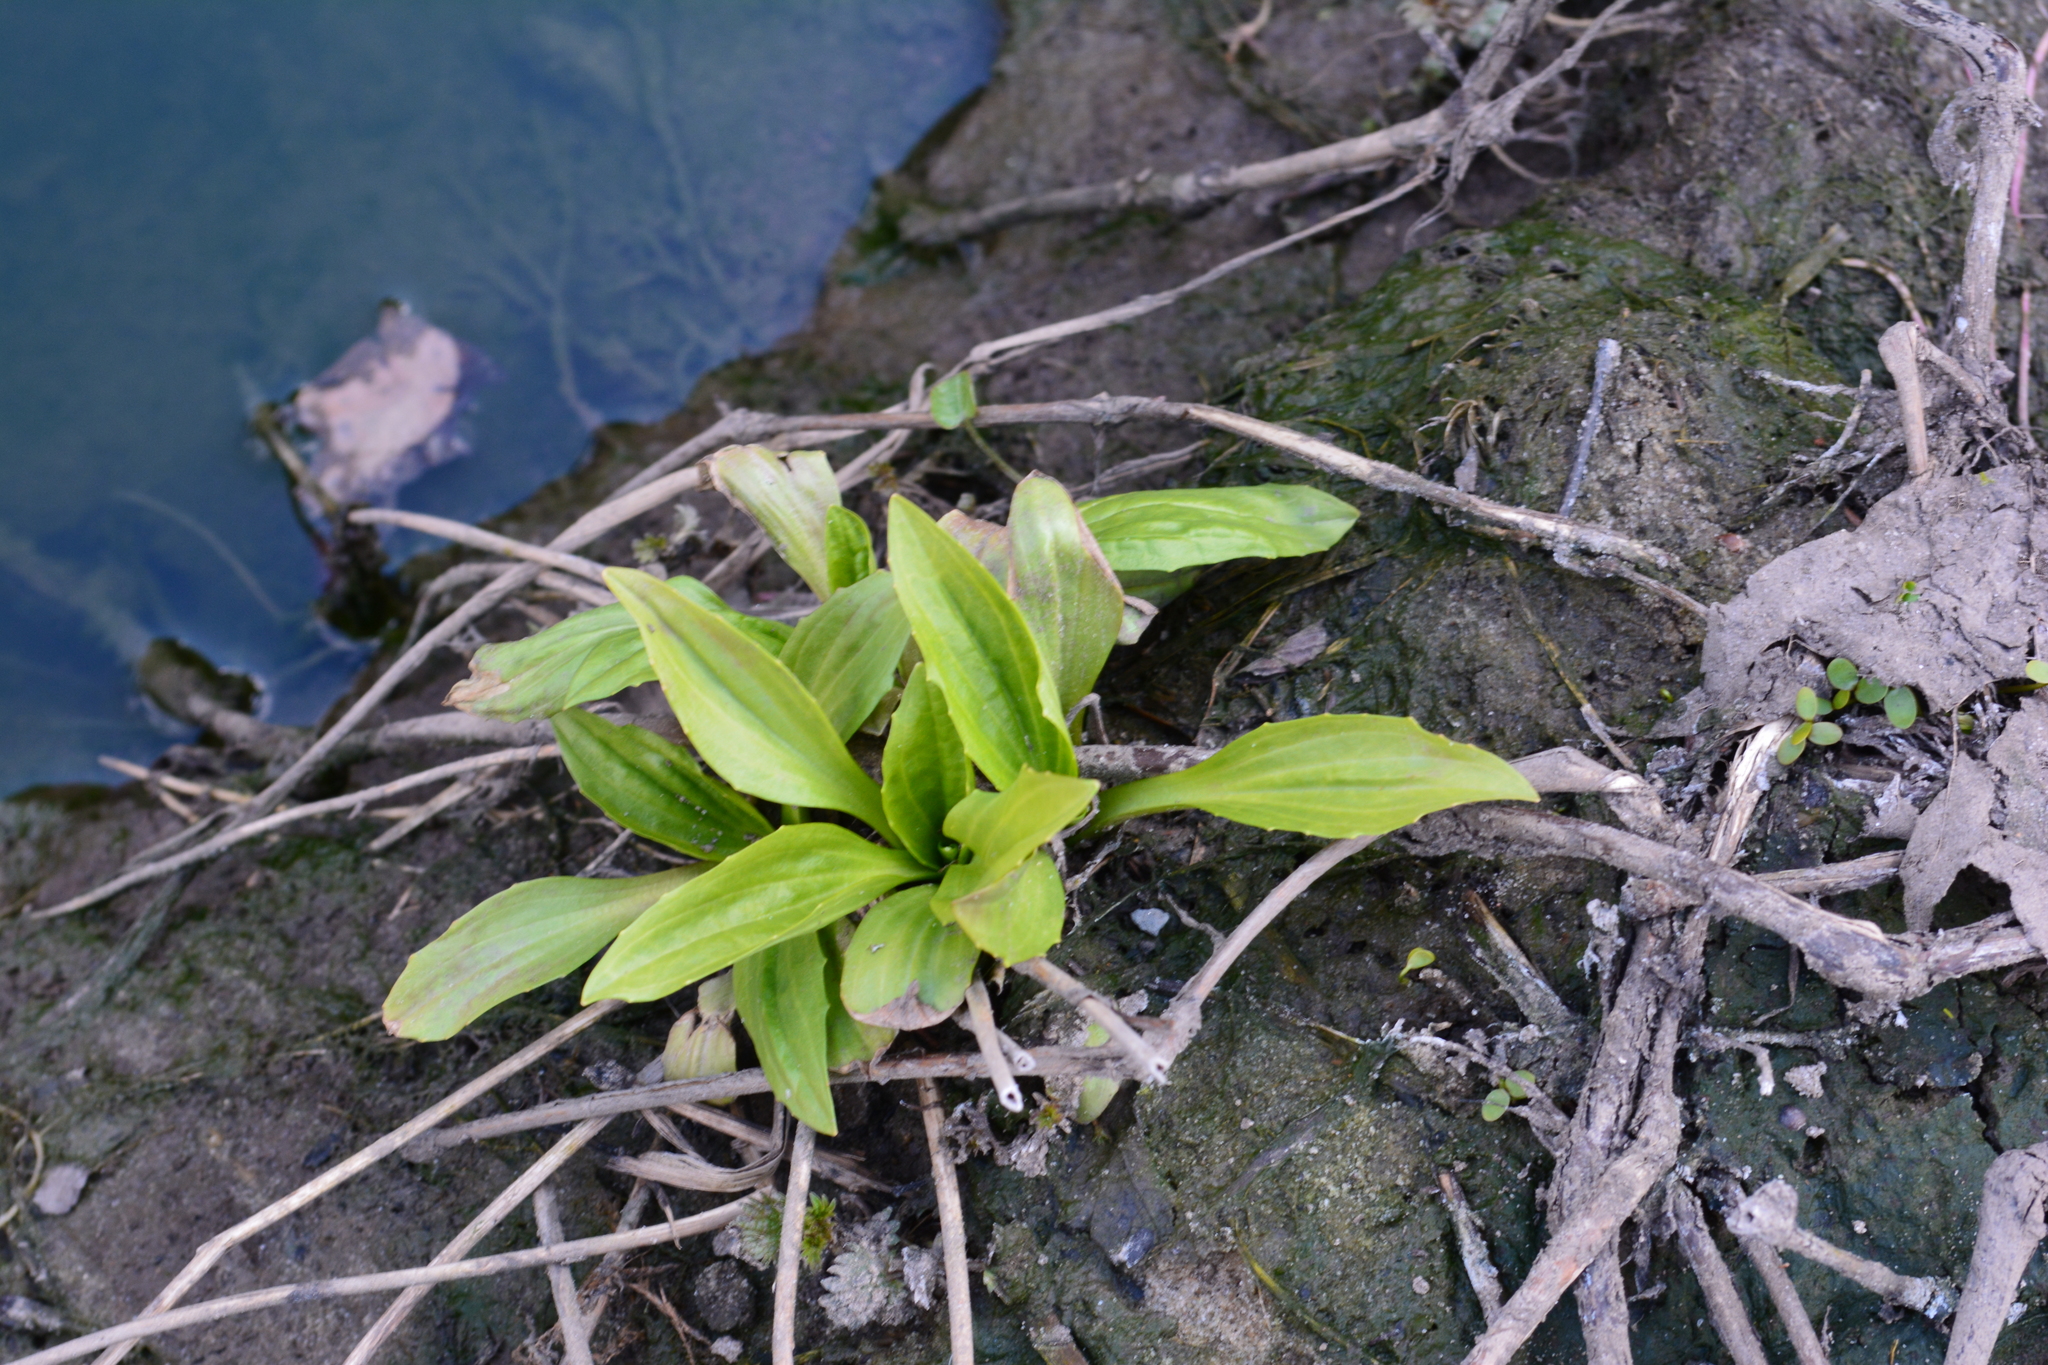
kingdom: Plantae
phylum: Tracheophyta
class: Magnoliopsida
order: Lamiales
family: Plantaginaceae
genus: Plantago
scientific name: Plantago major
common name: Common plantain
